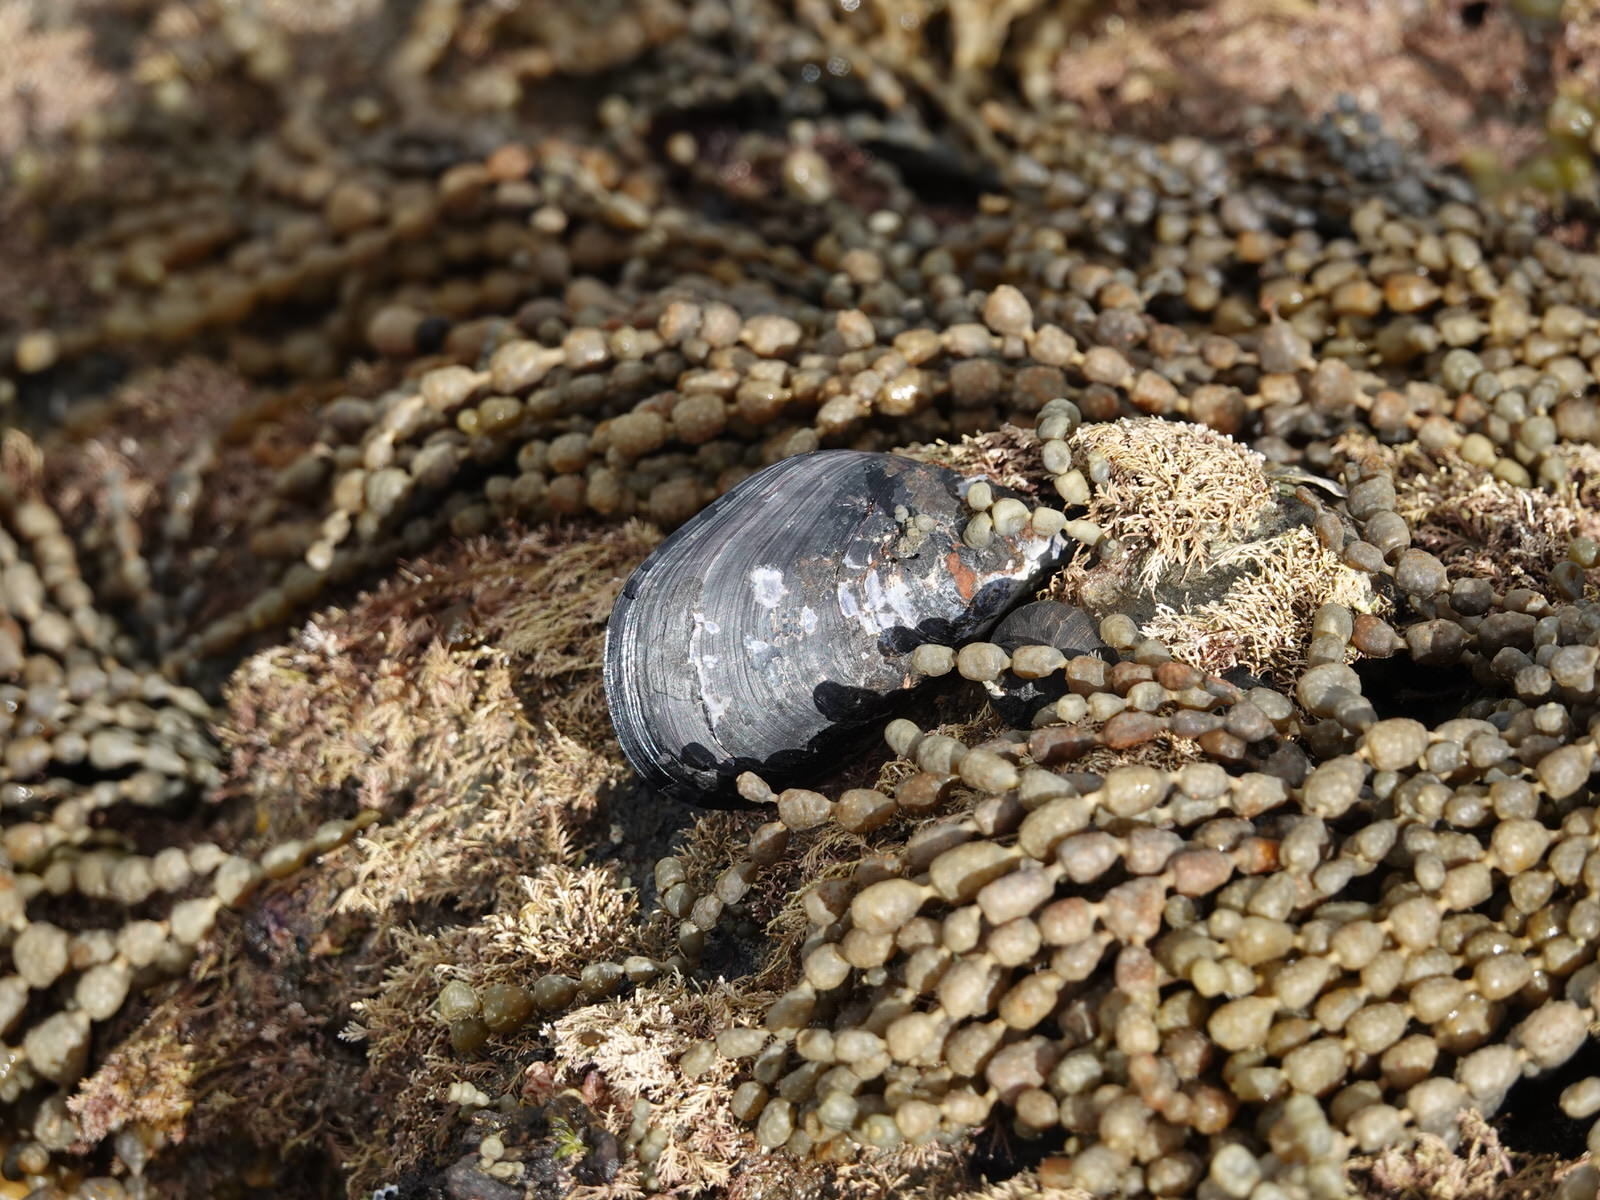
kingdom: Animalia
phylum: Mollusca
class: Bivalvia
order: Mytilida
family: Mytilidae
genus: Mytilus
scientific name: Mytilus planulatus
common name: Australian mussel
